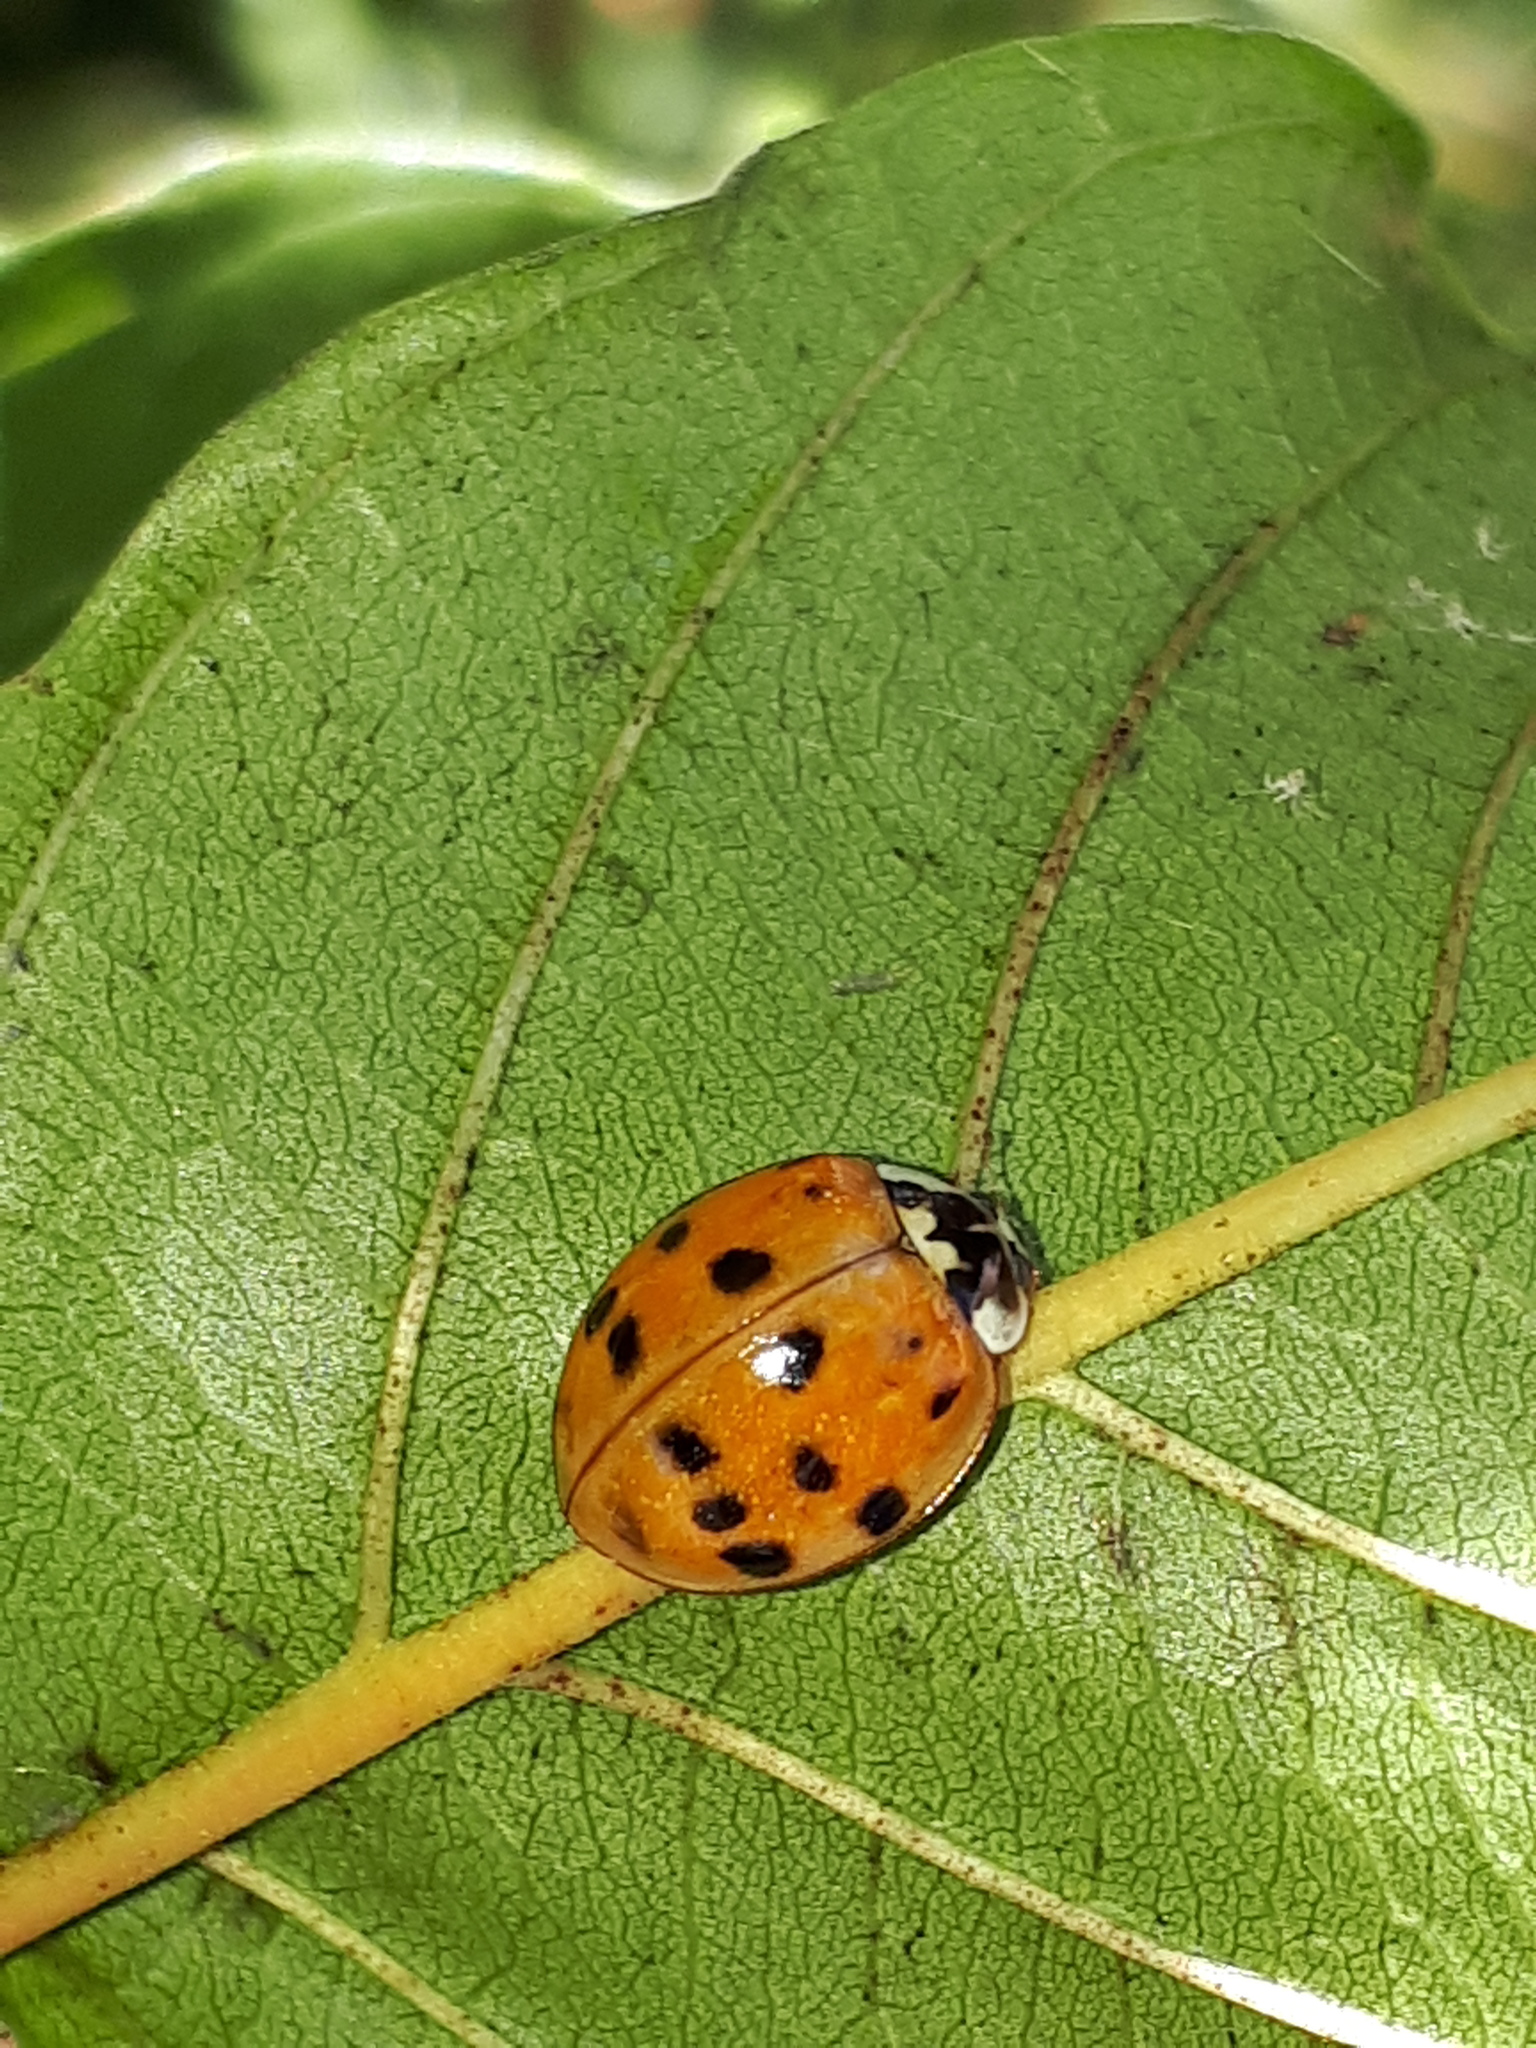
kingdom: Animalia
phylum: Arthropoda
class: Insecta
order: Coleoptera
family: Coccinellidae
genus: Harmonia
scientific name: Harmonia axyridis
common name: Harlequin ladybird
